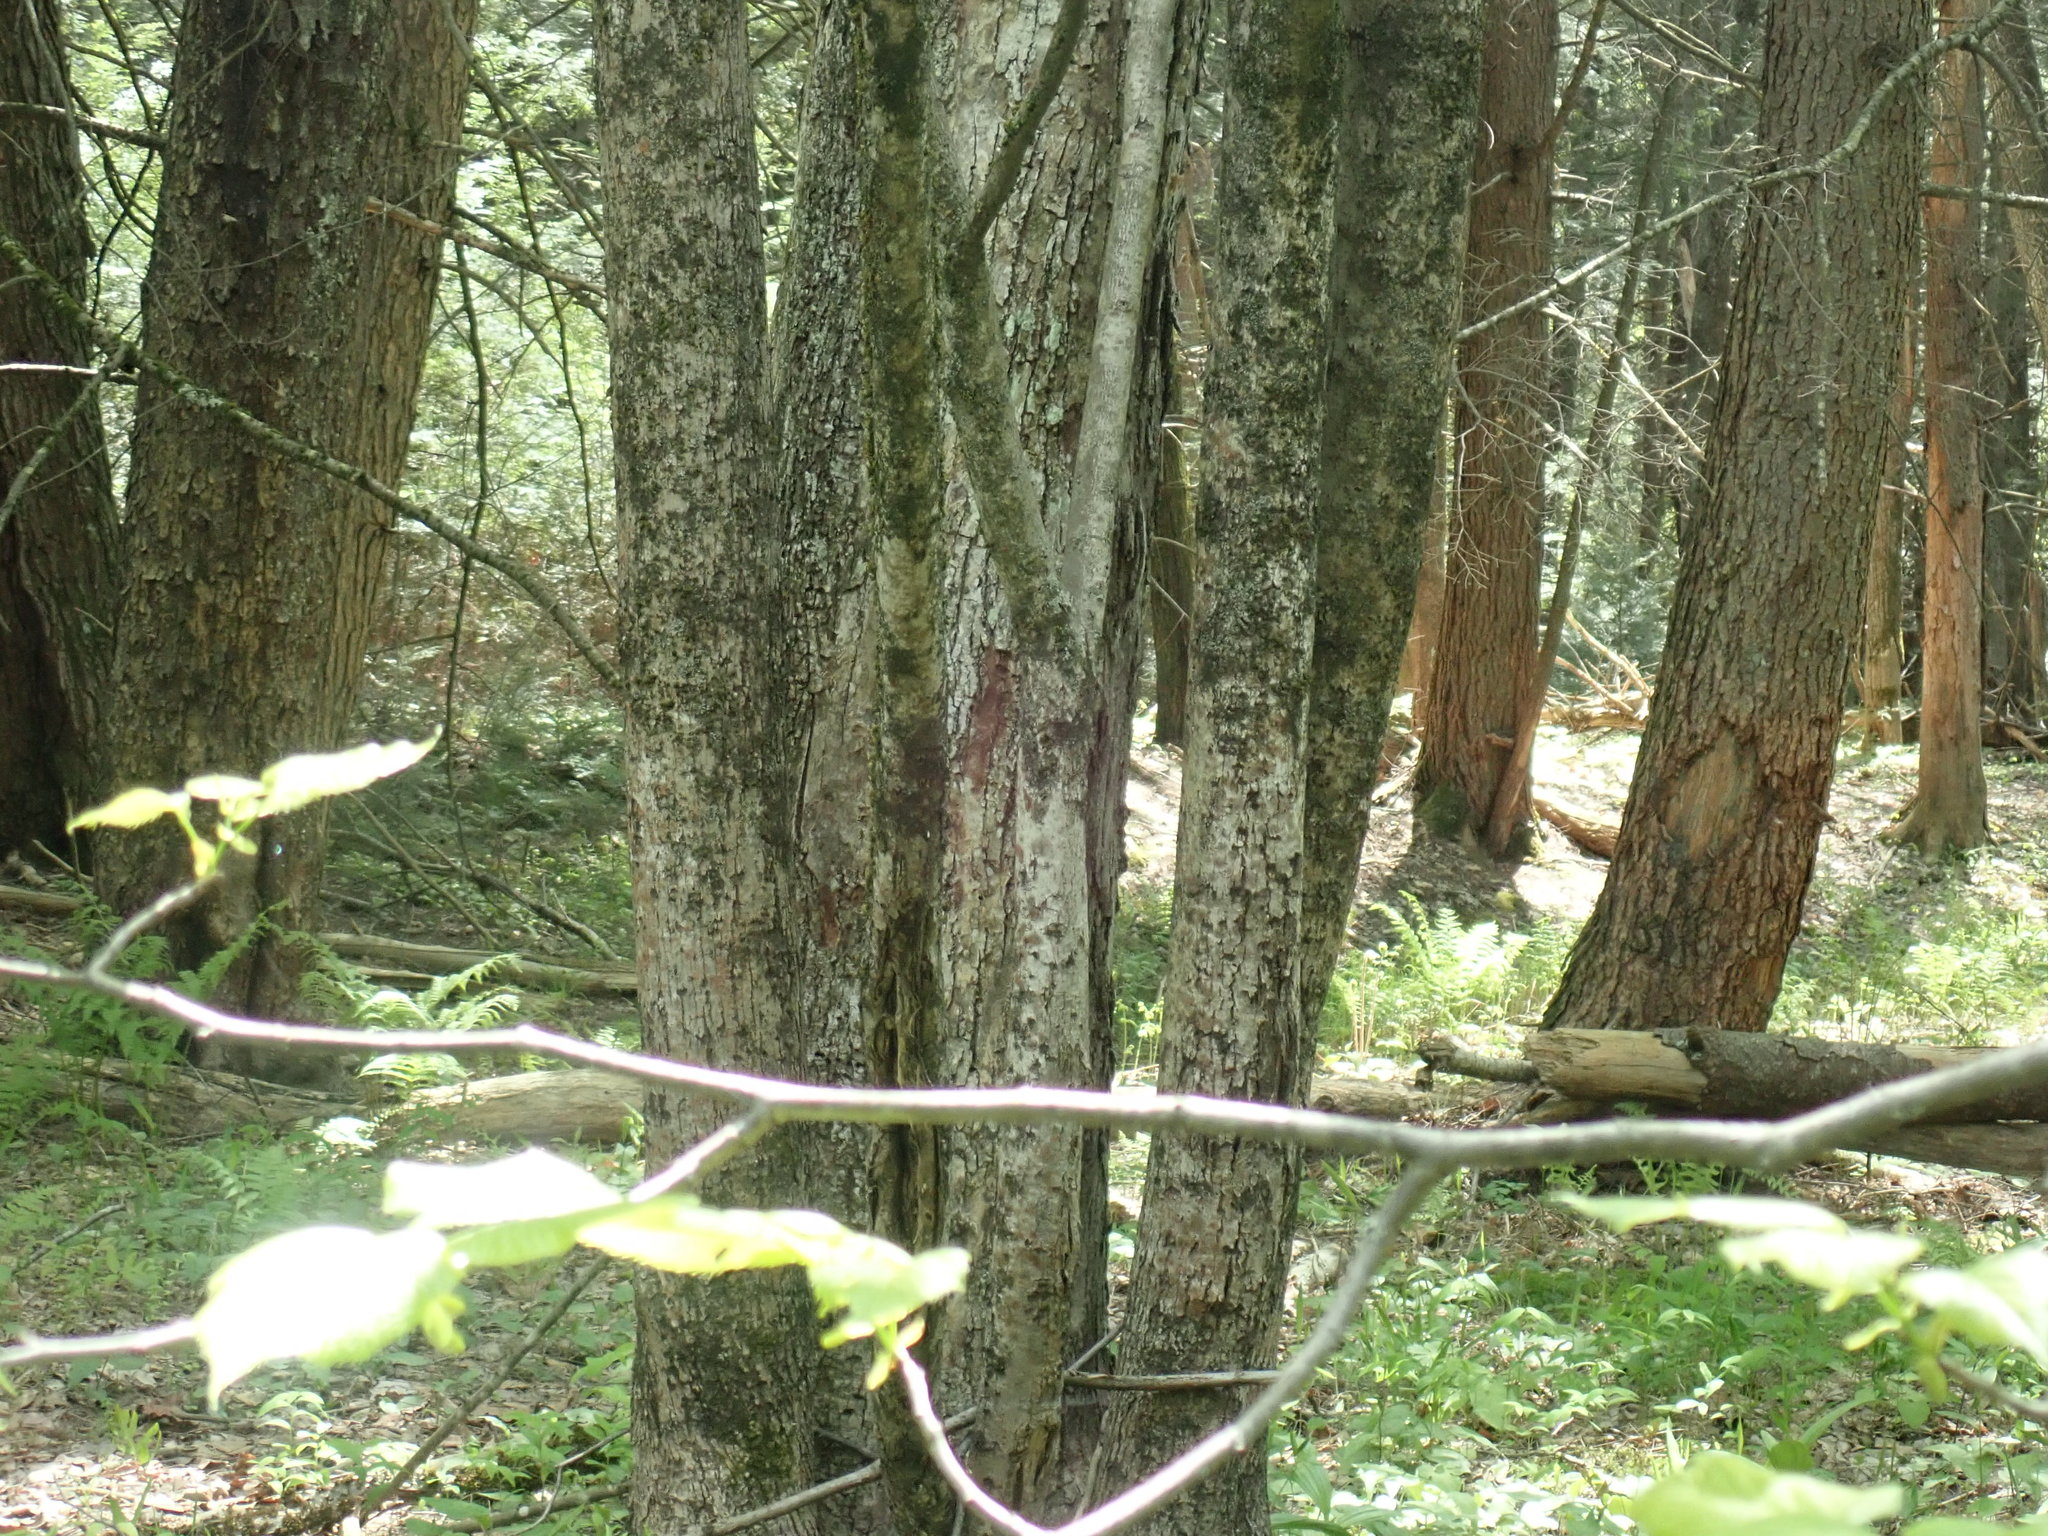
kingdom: Plantae
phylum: Tracheophyta
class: Magnoliopsida
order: Malvales
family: Malvaceae
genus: Tilia
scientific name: Tilia americana
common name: Basswood
